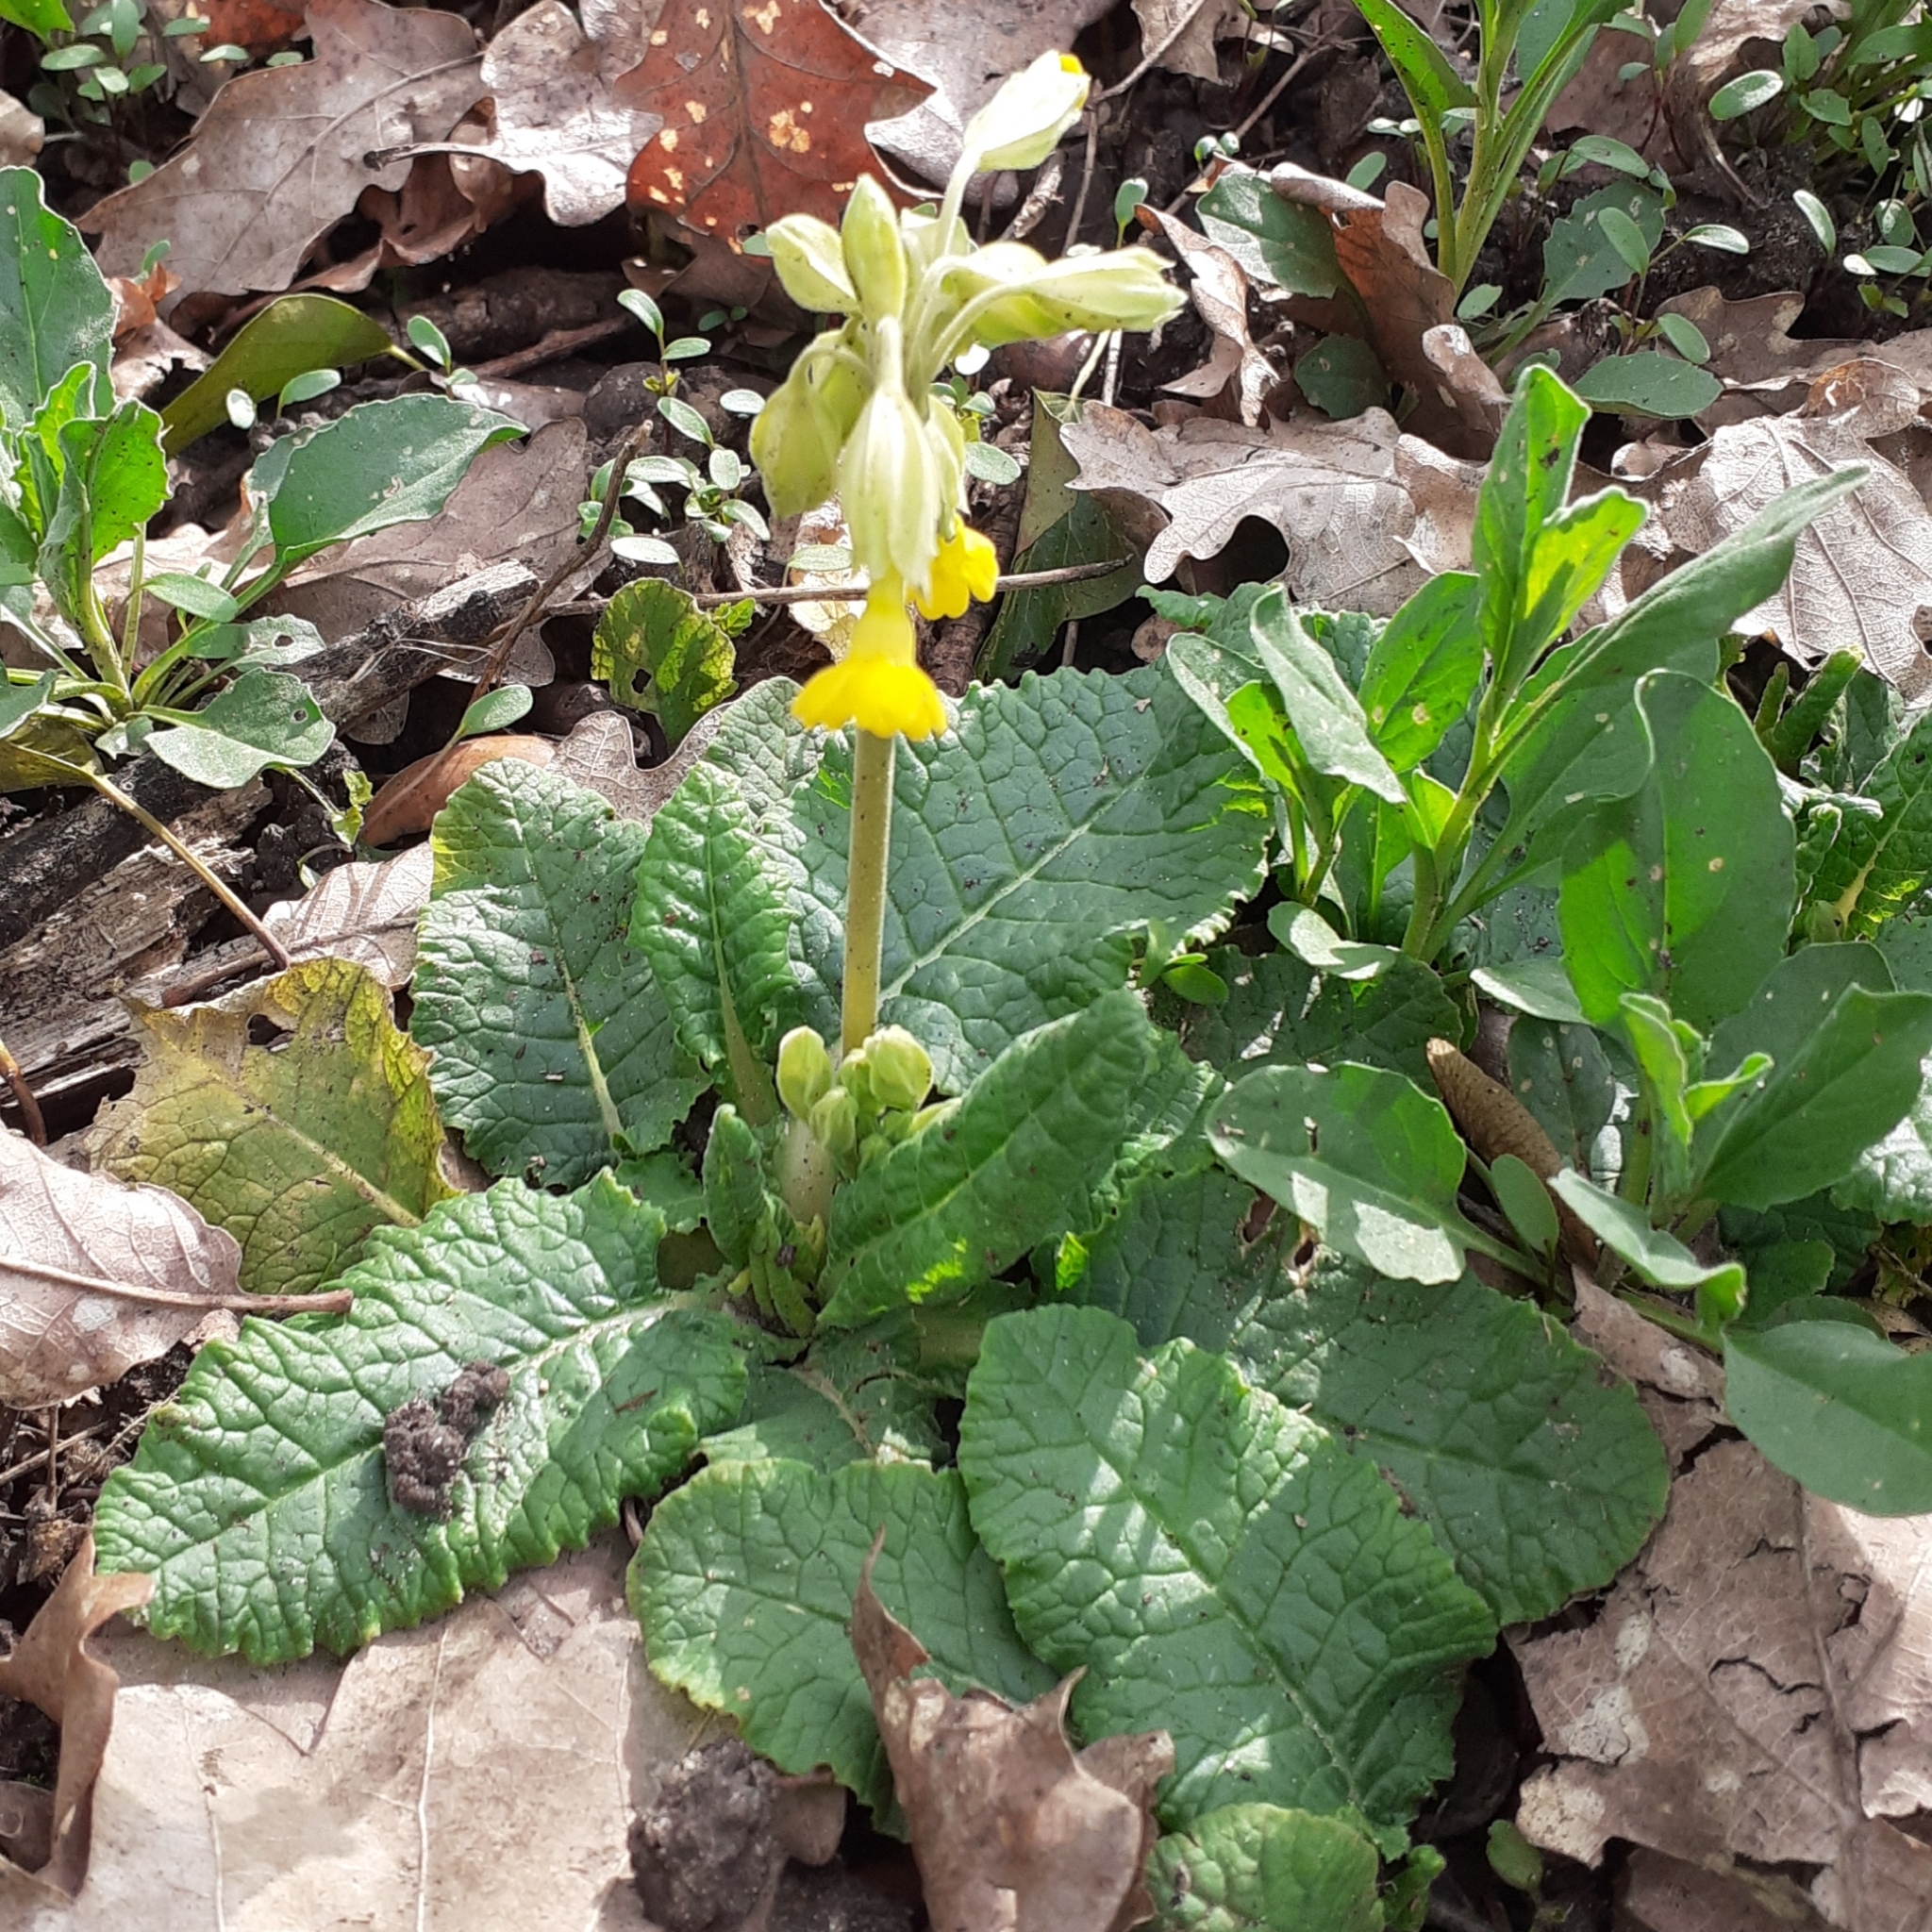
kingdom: Plantae
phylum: Tracheophyta
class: Magnoliopsida
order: Ericales
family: Primulaceae
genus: Primula
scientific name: Primula veris
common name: Cowslip
